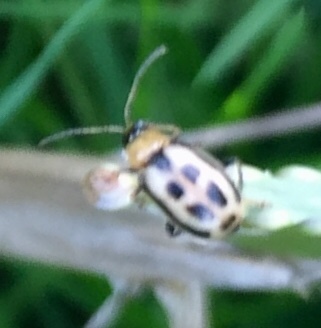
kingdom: Animalia
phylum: Arthropoda
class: Insecta
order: Coleoptera
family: Chrysomelidae
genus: Cerotoma
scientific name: Cerotoma trifurcata
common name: Bean leaf beetle
